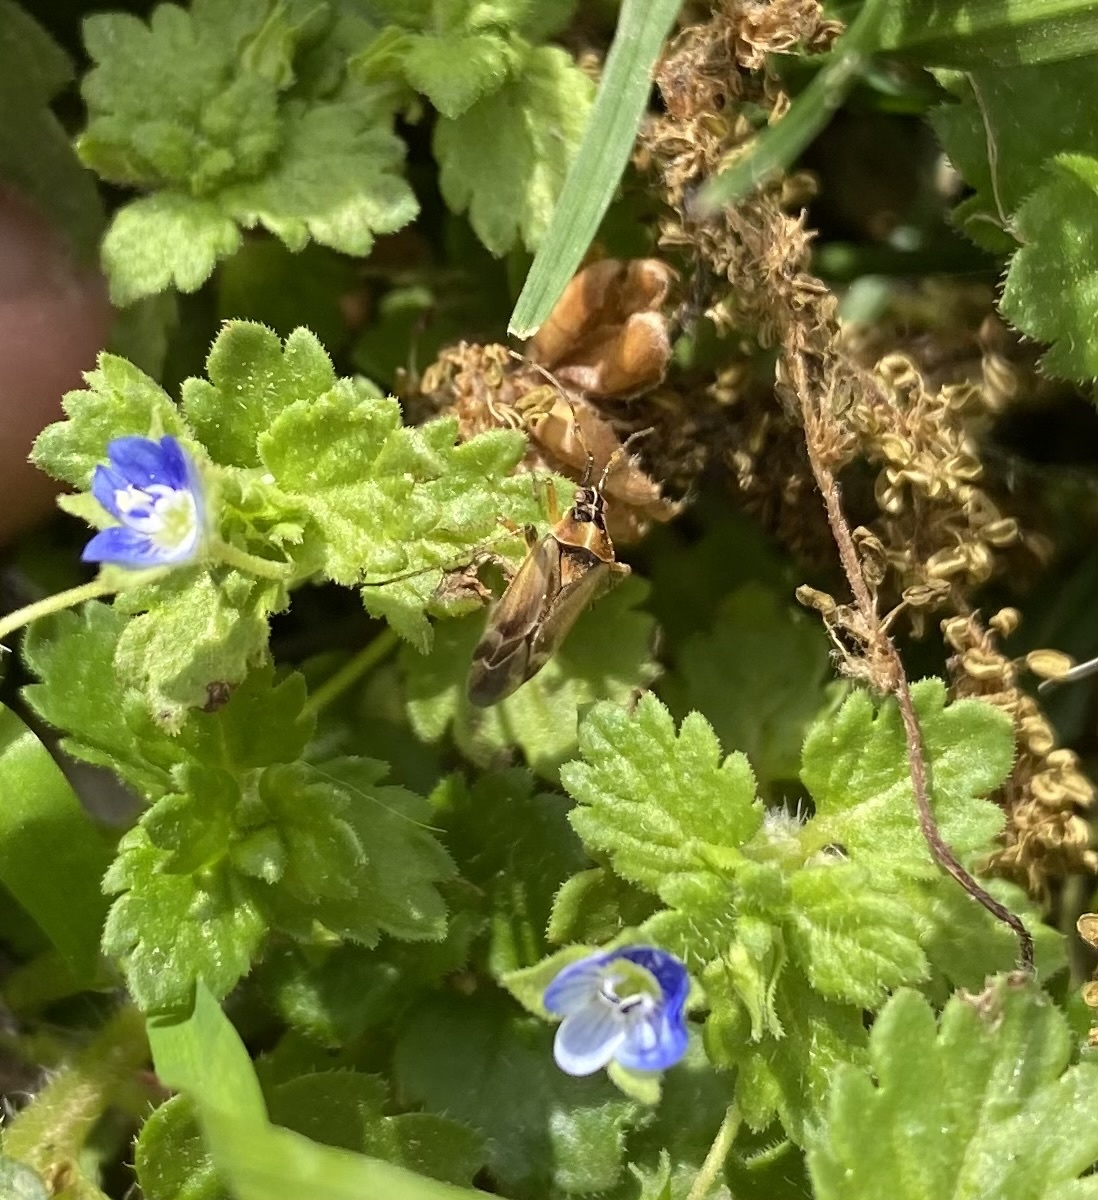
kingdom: Animalia
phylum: Arthropoda
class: Insecta
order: Hemiptera
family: Miridae
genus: Harpocera
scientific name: Harpocera thoracica
